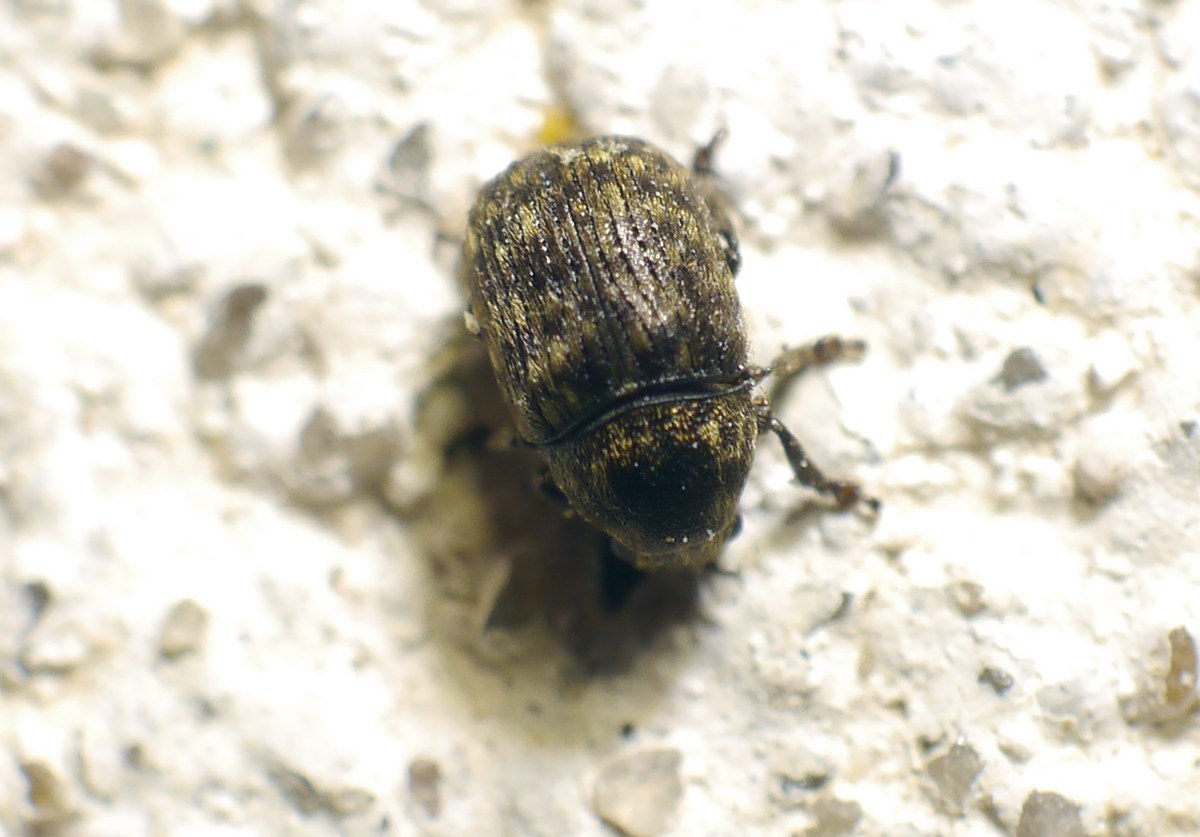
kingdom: Animalia
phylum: Arthropoda
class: Insecta
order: Coleoptera
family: Anthribidae
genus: Anthribus
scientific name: Anthribus nebulosus
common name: Fungus weevil
